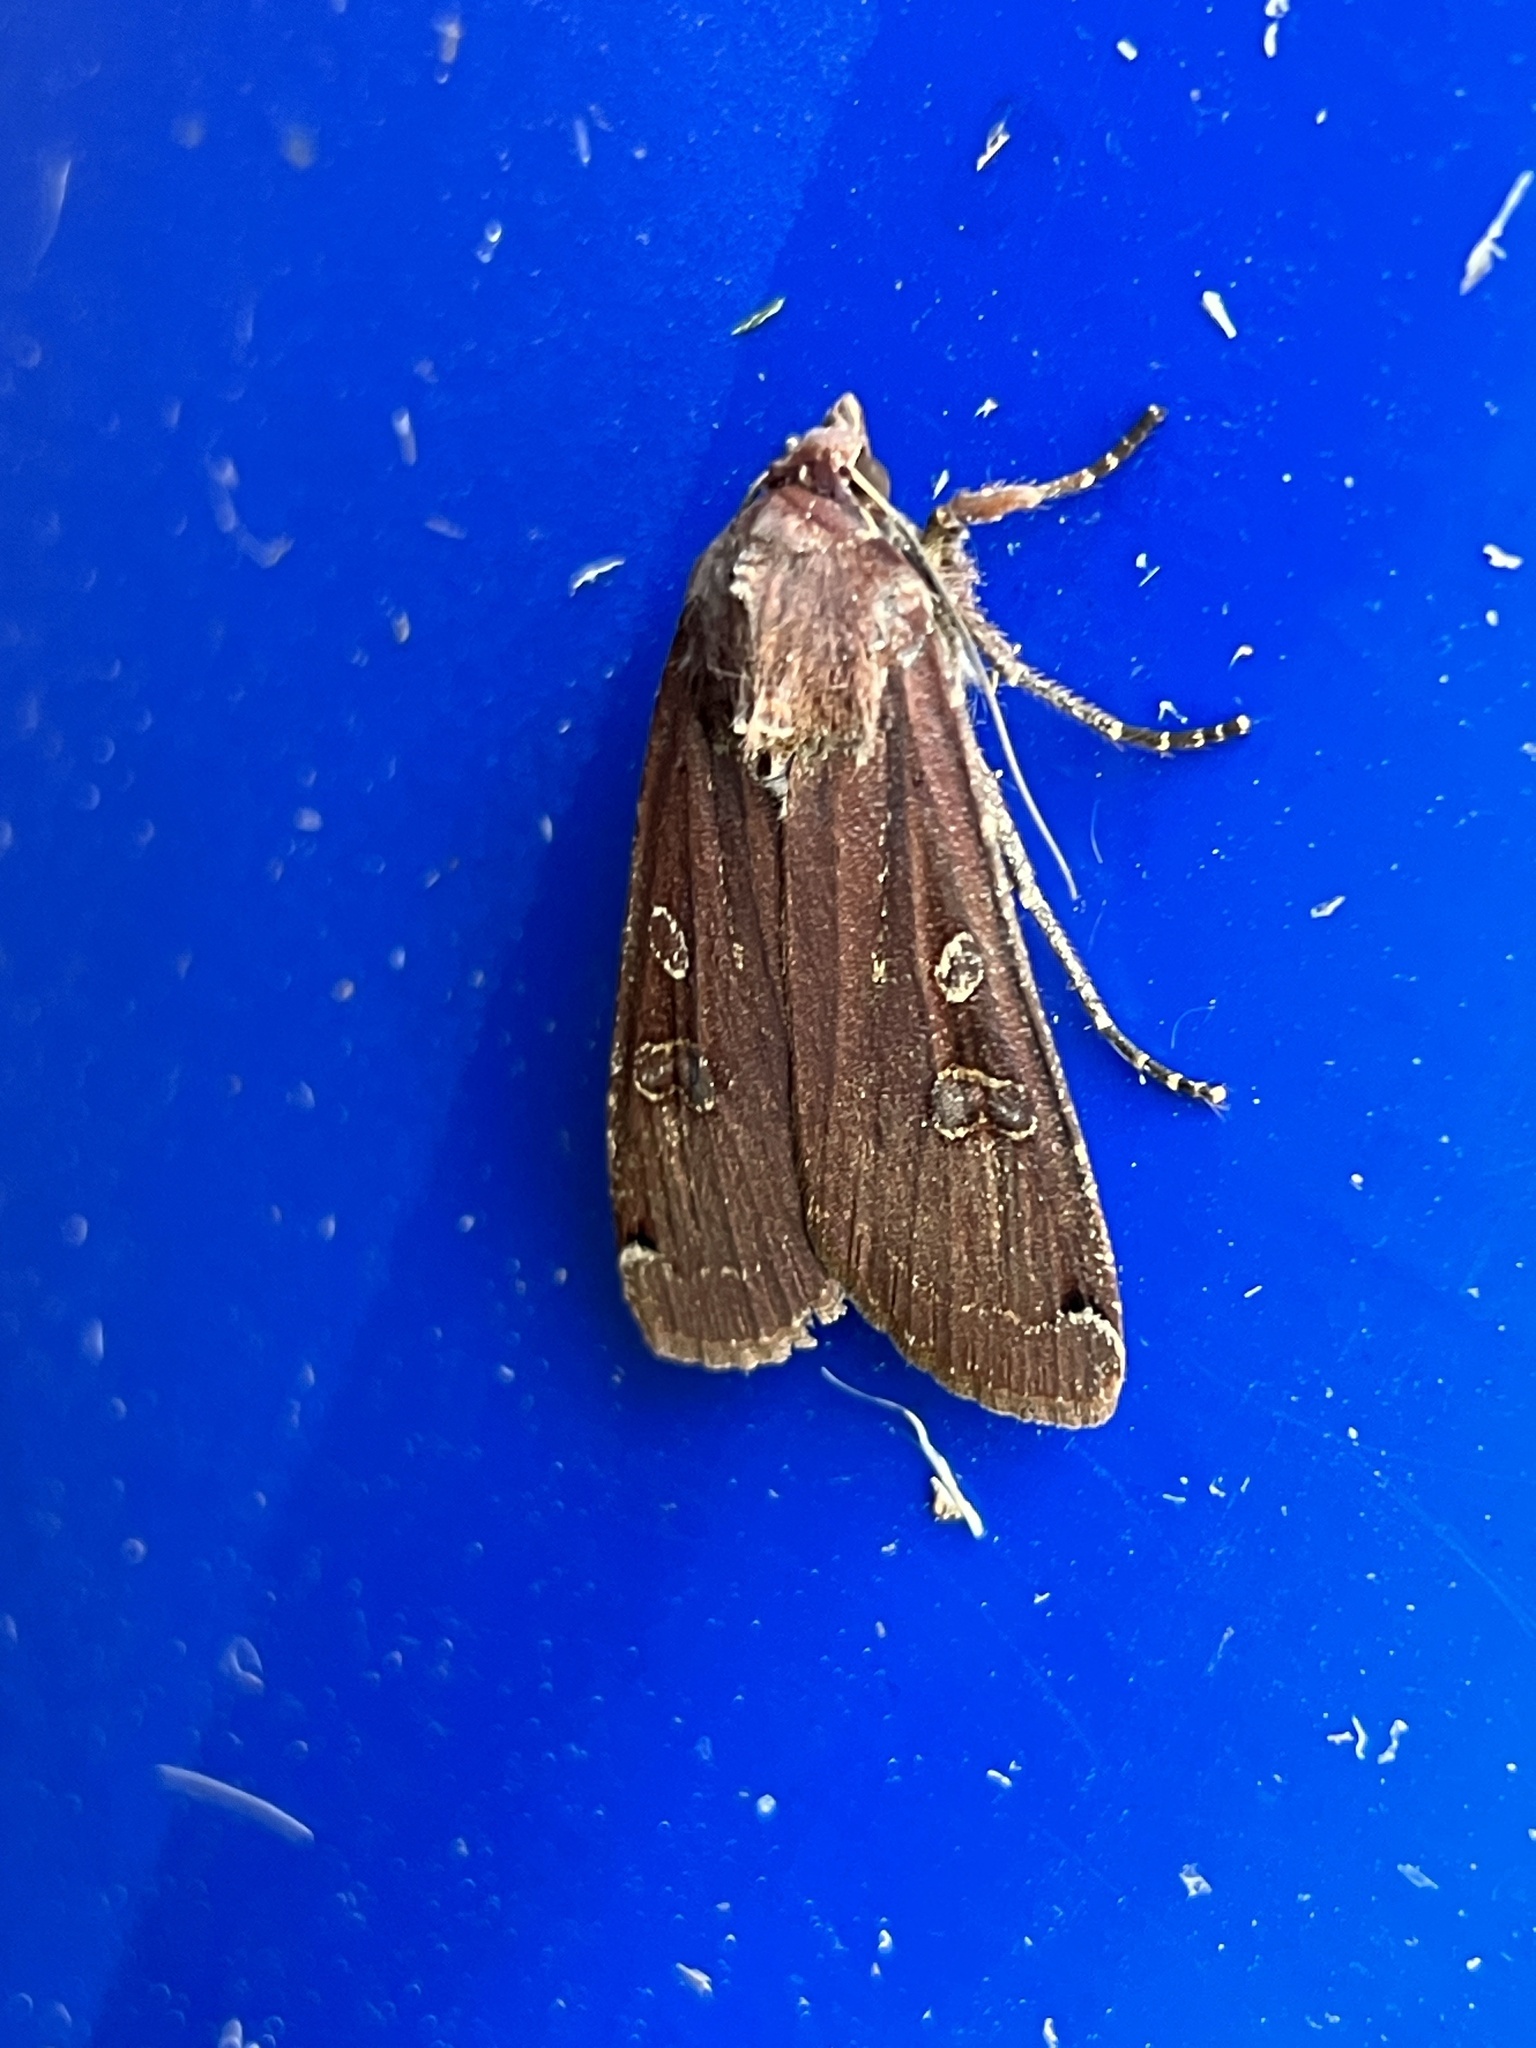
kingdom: Animalia
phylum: Arthropoda
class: Insecta
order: Lepidoptera
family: Noctuidae
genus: Noctua
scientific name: Noctua pronuba
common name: Large yellow underwing
